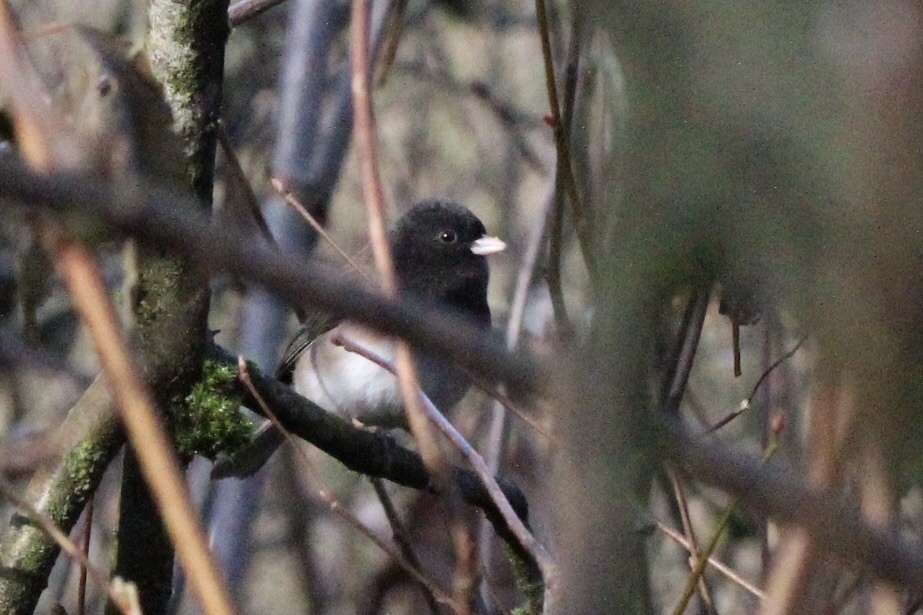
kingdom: Animalia
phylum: Chordata
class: Aves
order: Passeriformes
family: Passerellidae
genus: Junco
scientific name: Junco hyemalis
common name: Dark-eyed junco
